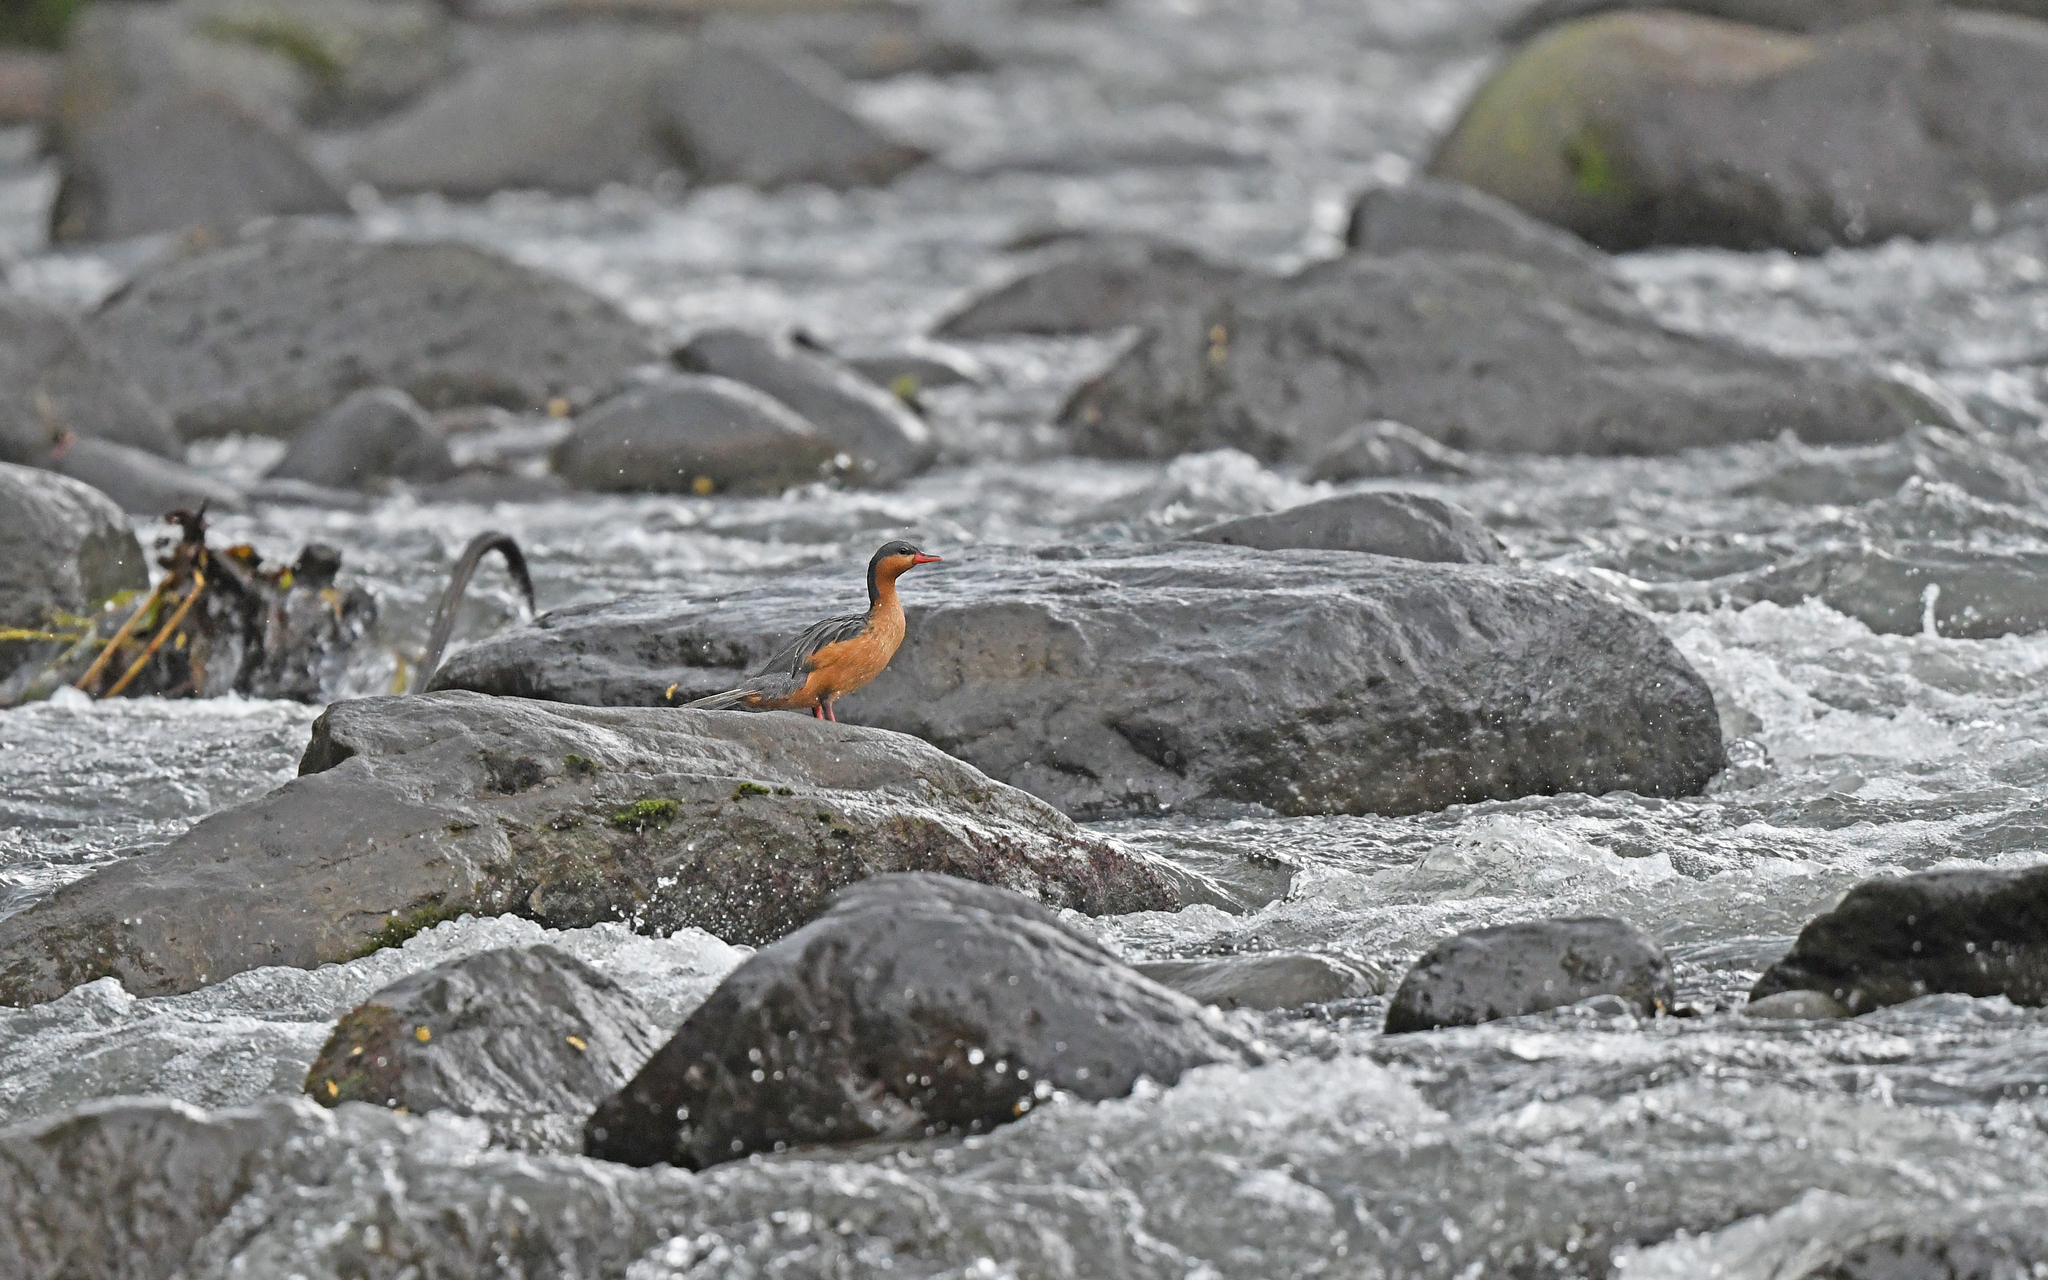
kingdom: Animalia
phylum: Chordata
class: Aves
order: Anseriformes
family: Anatidae
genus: Merganetta
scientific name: Merganetta armata
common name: Torrent duck
